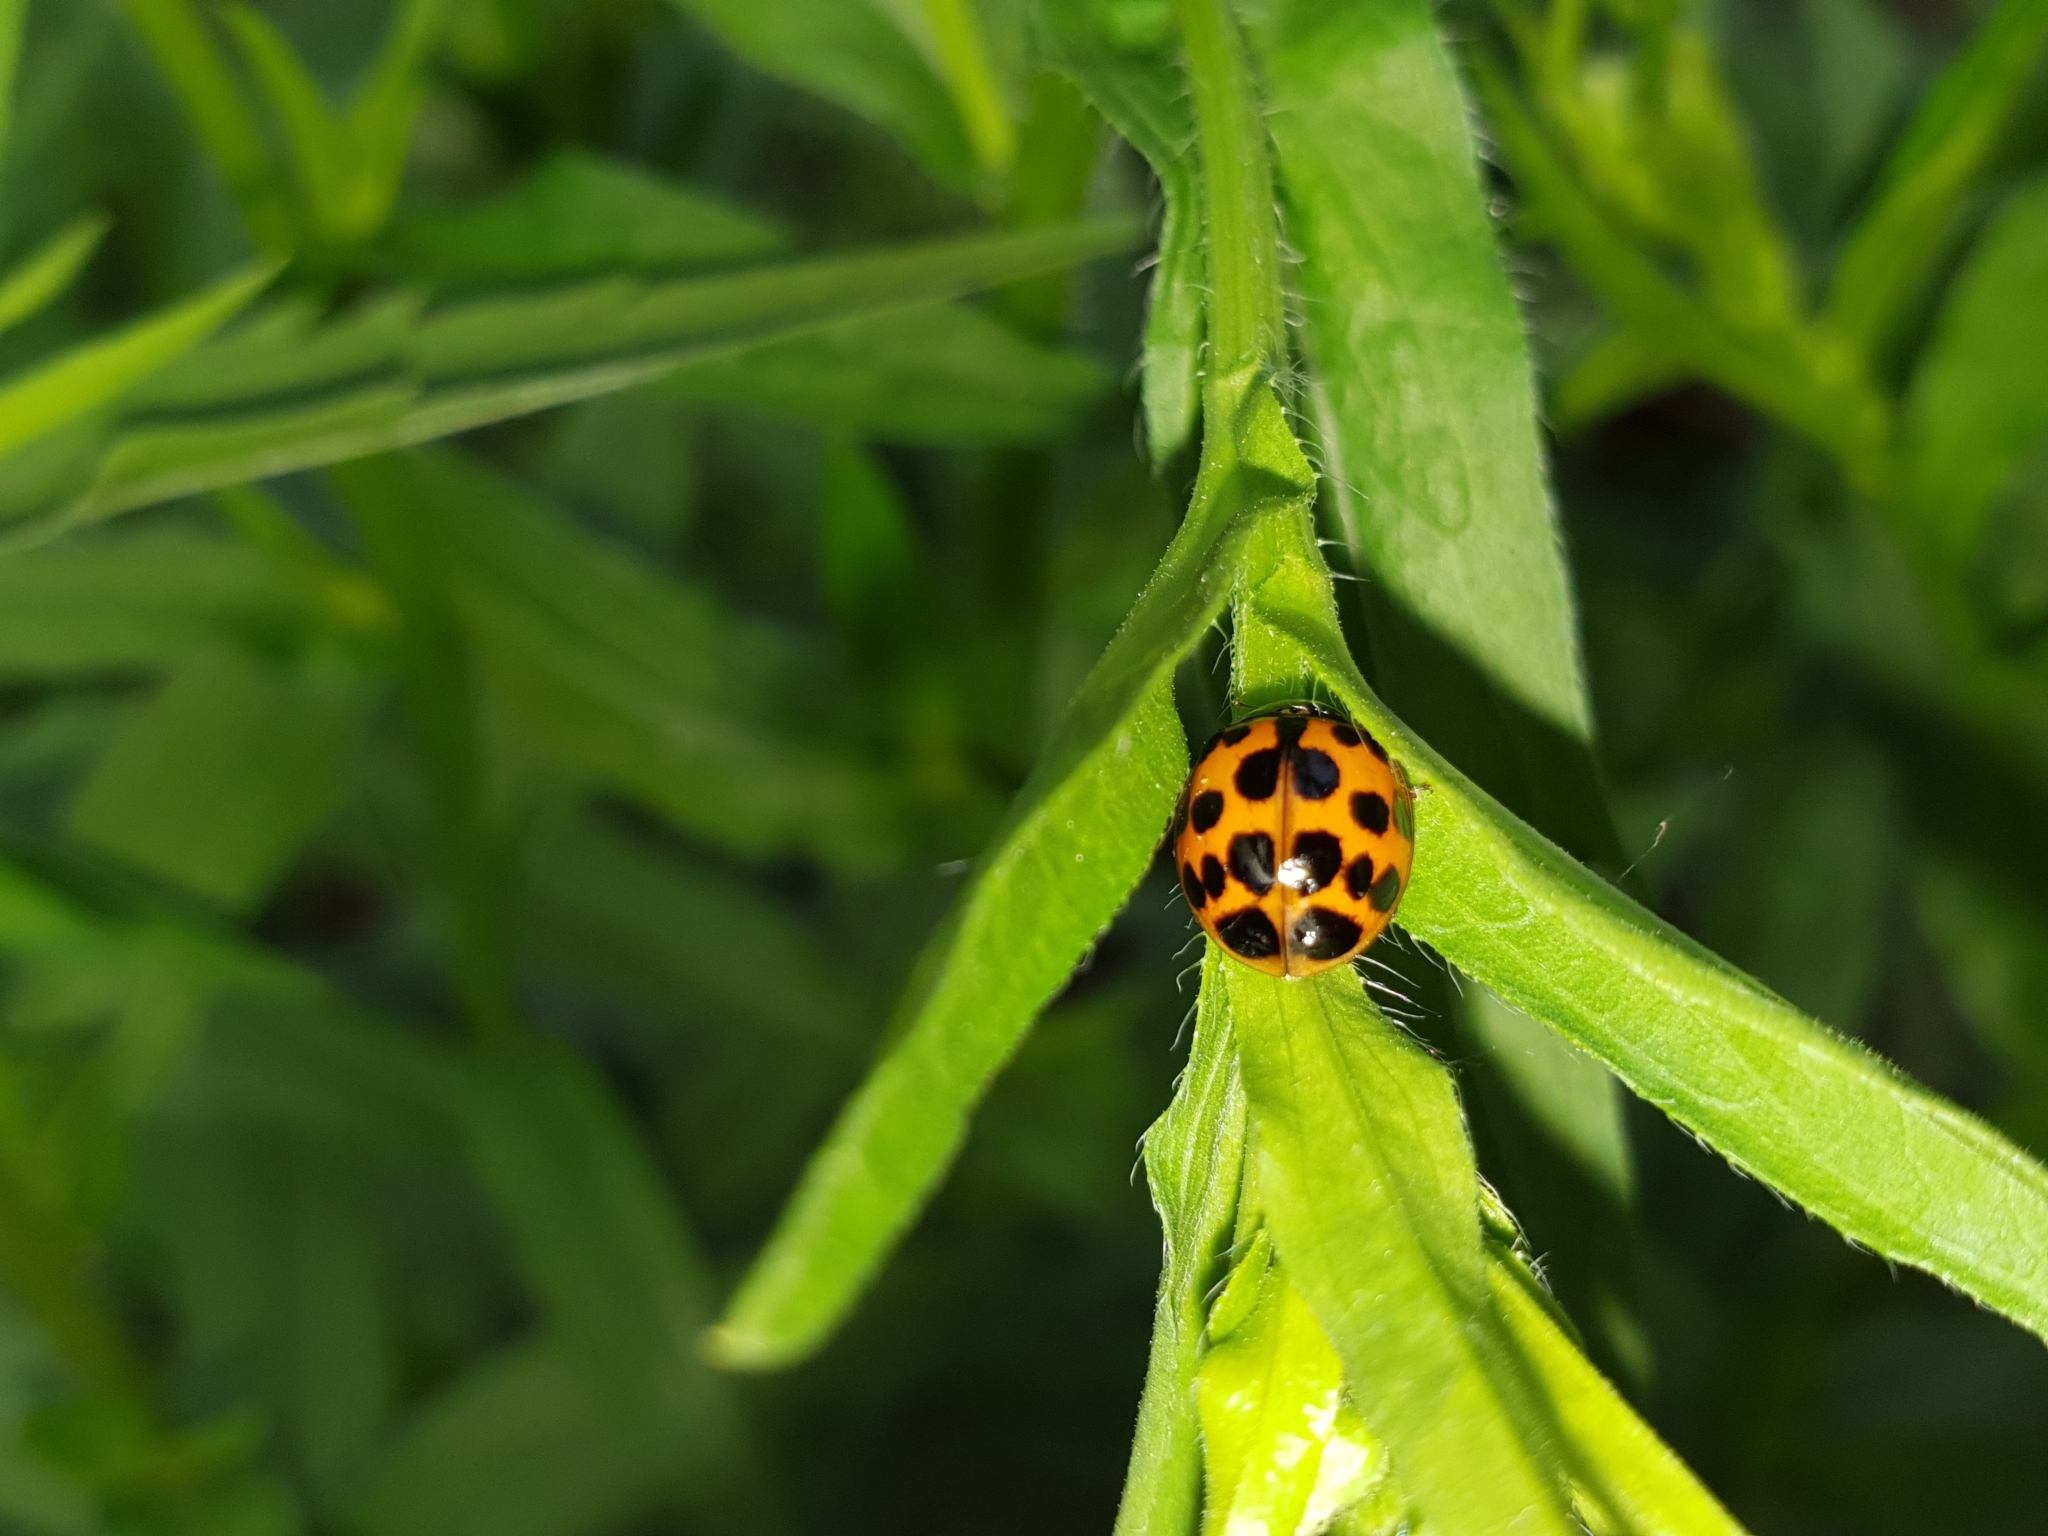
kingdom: Animalia
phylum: Arthropoda
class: Insecta
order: Coleoptera
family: Coccinellidae
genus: Harmonia
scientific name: Harmonia axyridis
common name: Harlequin ladybird
